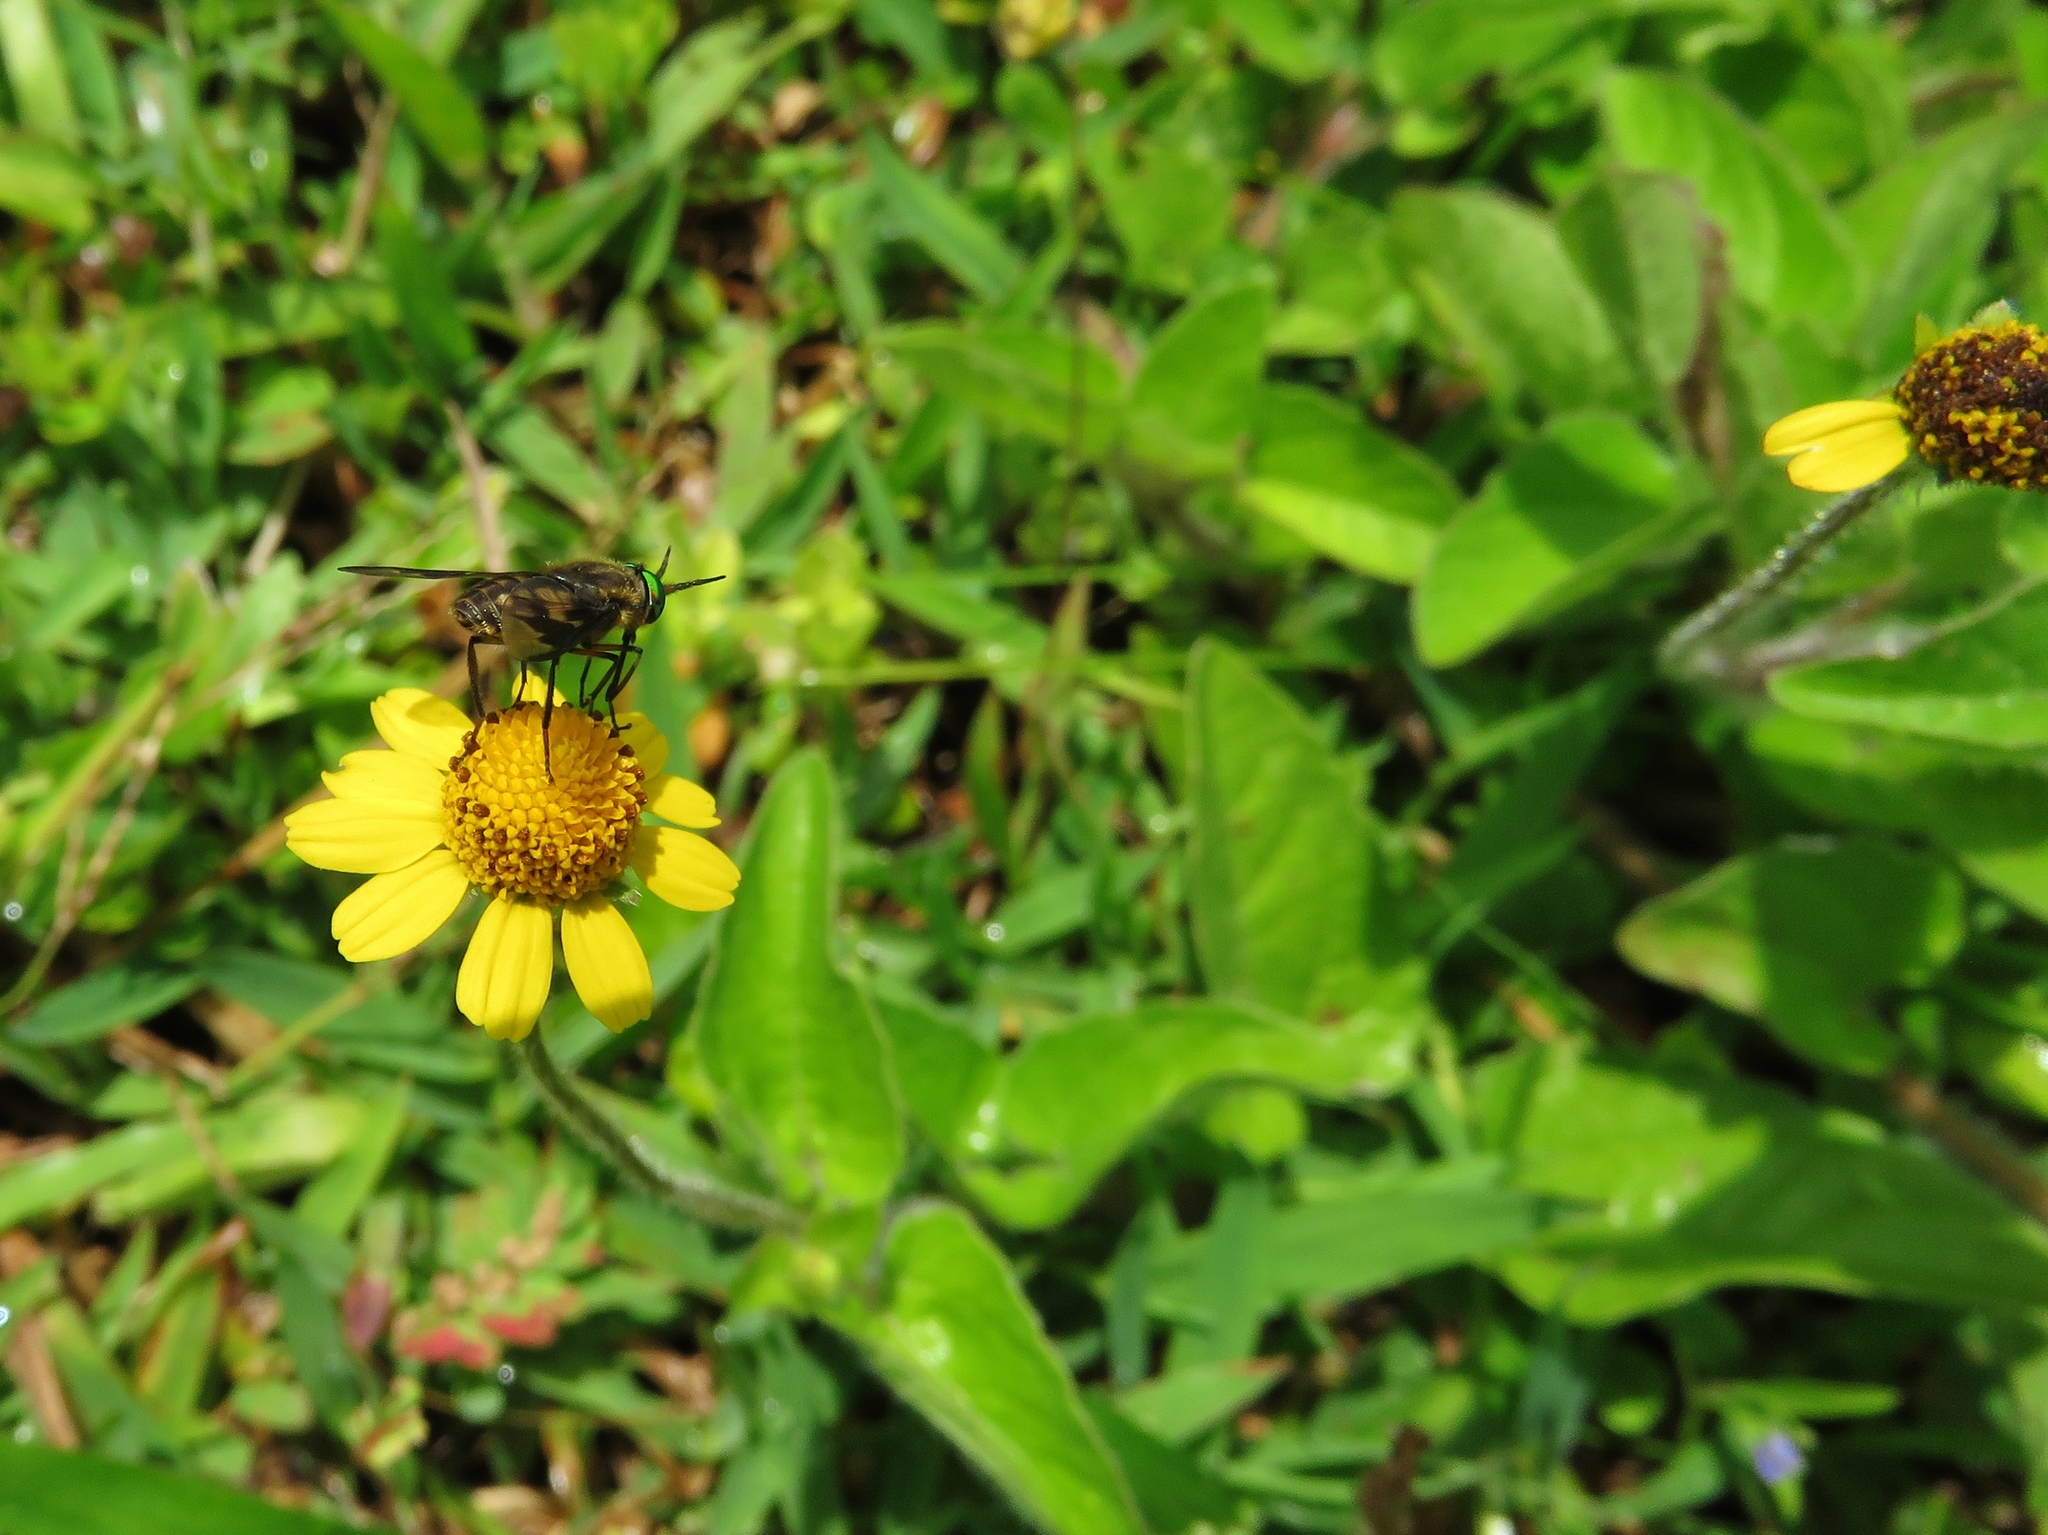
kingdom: Plantae
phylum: Tracheophyta
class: Magnoliopsida
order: Asterales
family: Asteraceae
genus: Acmella
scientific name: Acmella repens
